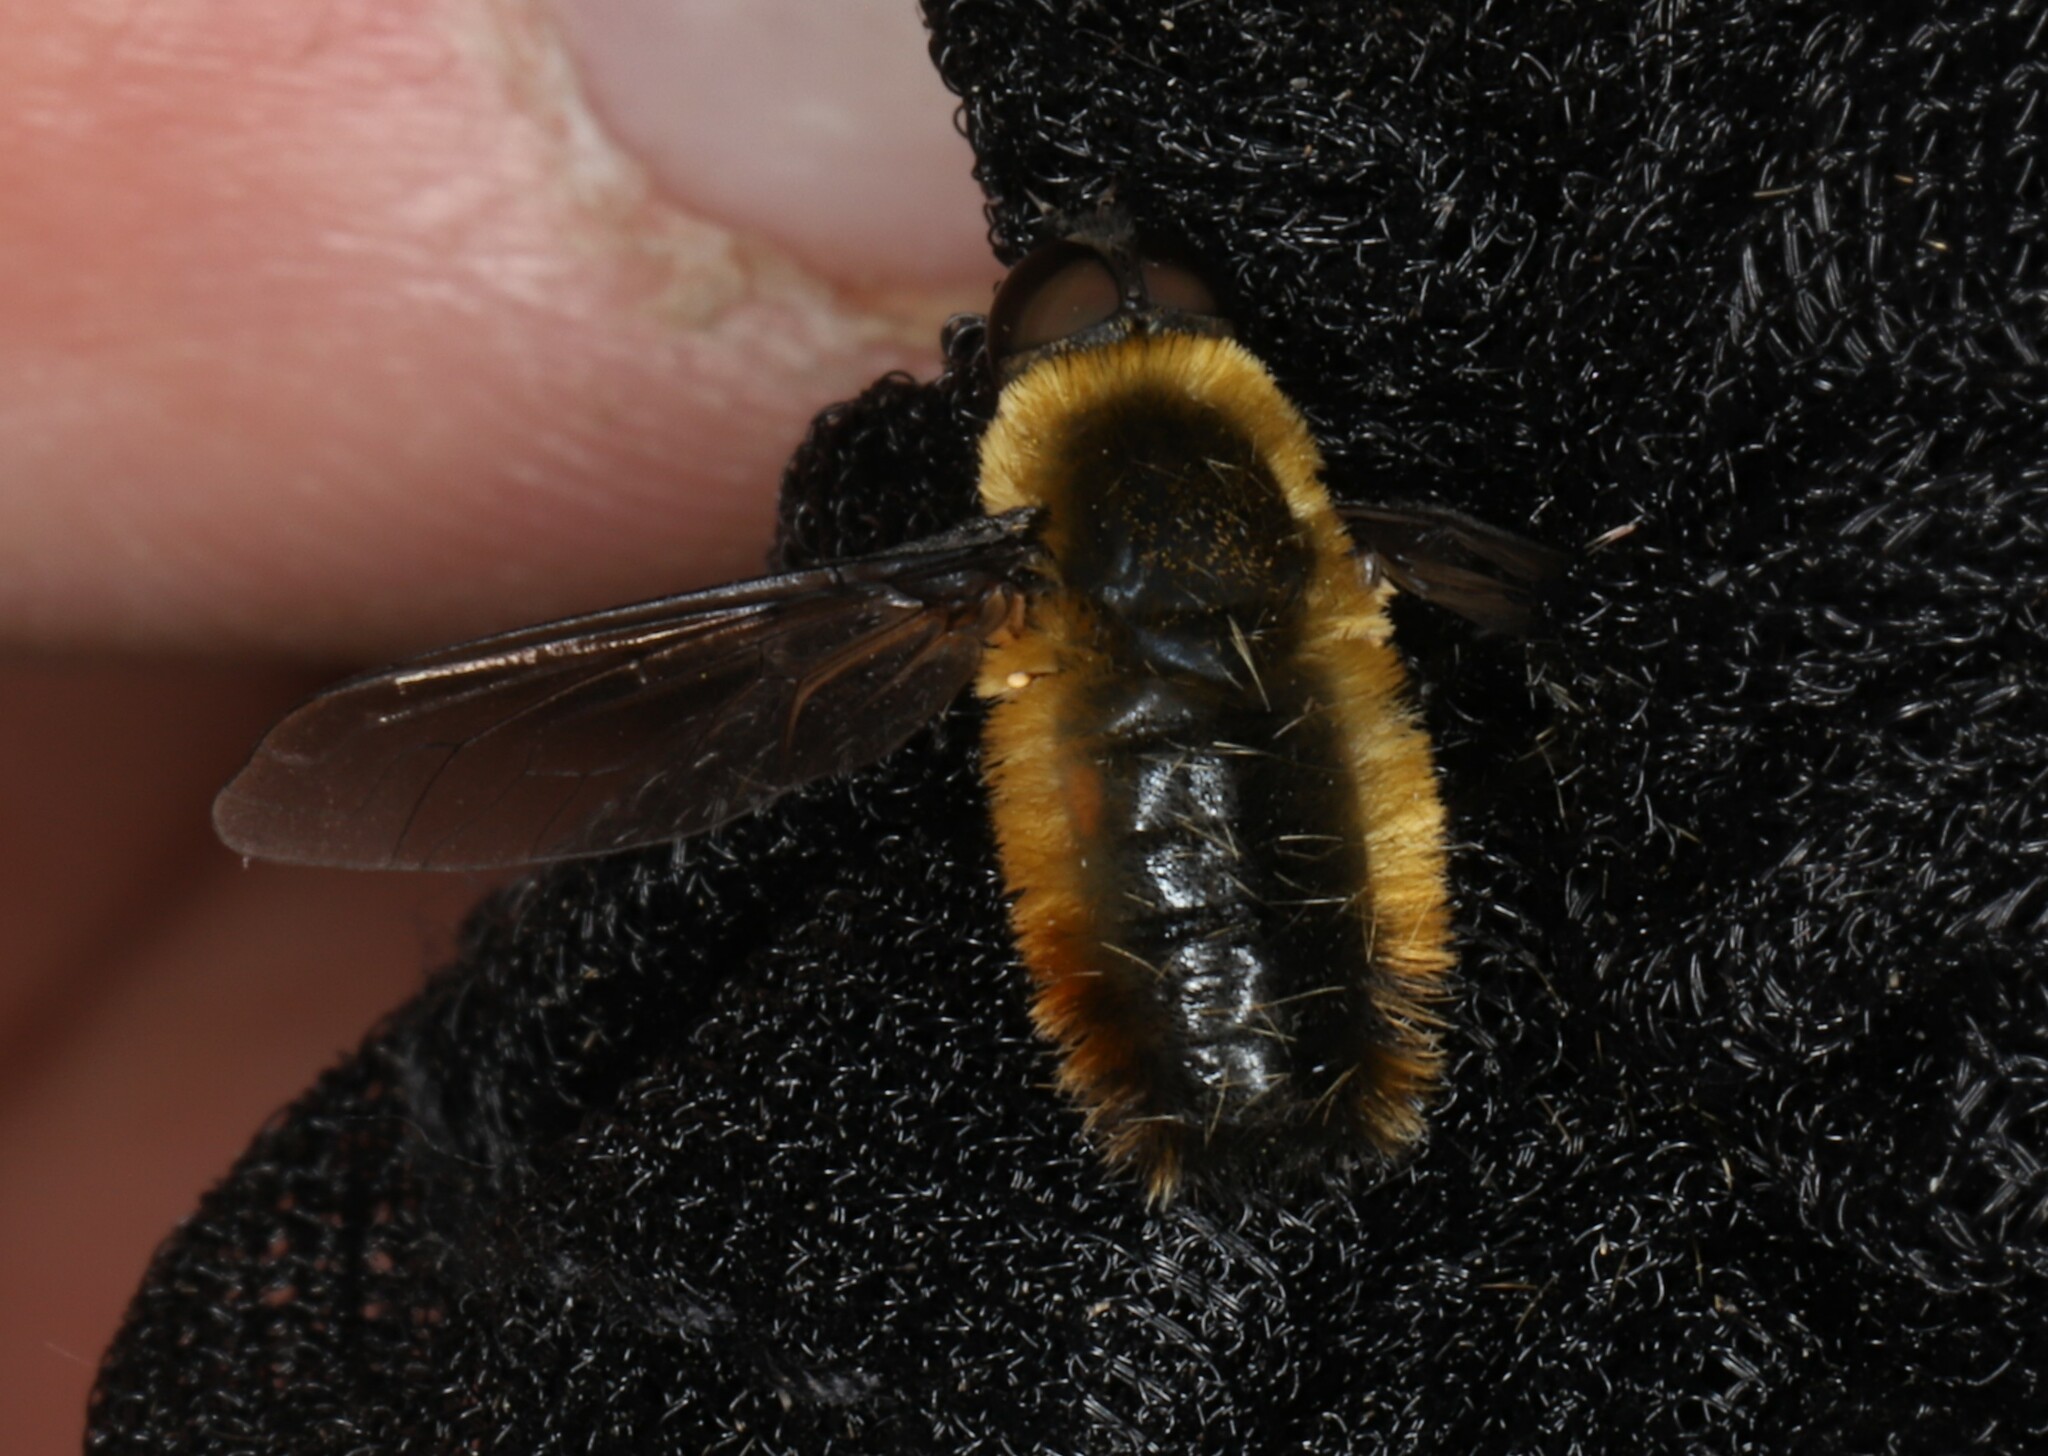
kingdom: Animalia
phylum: Arthropoda
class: Insecta
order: Diptera
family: Bombyliidae
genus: Villa
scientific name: Villa fulviana
